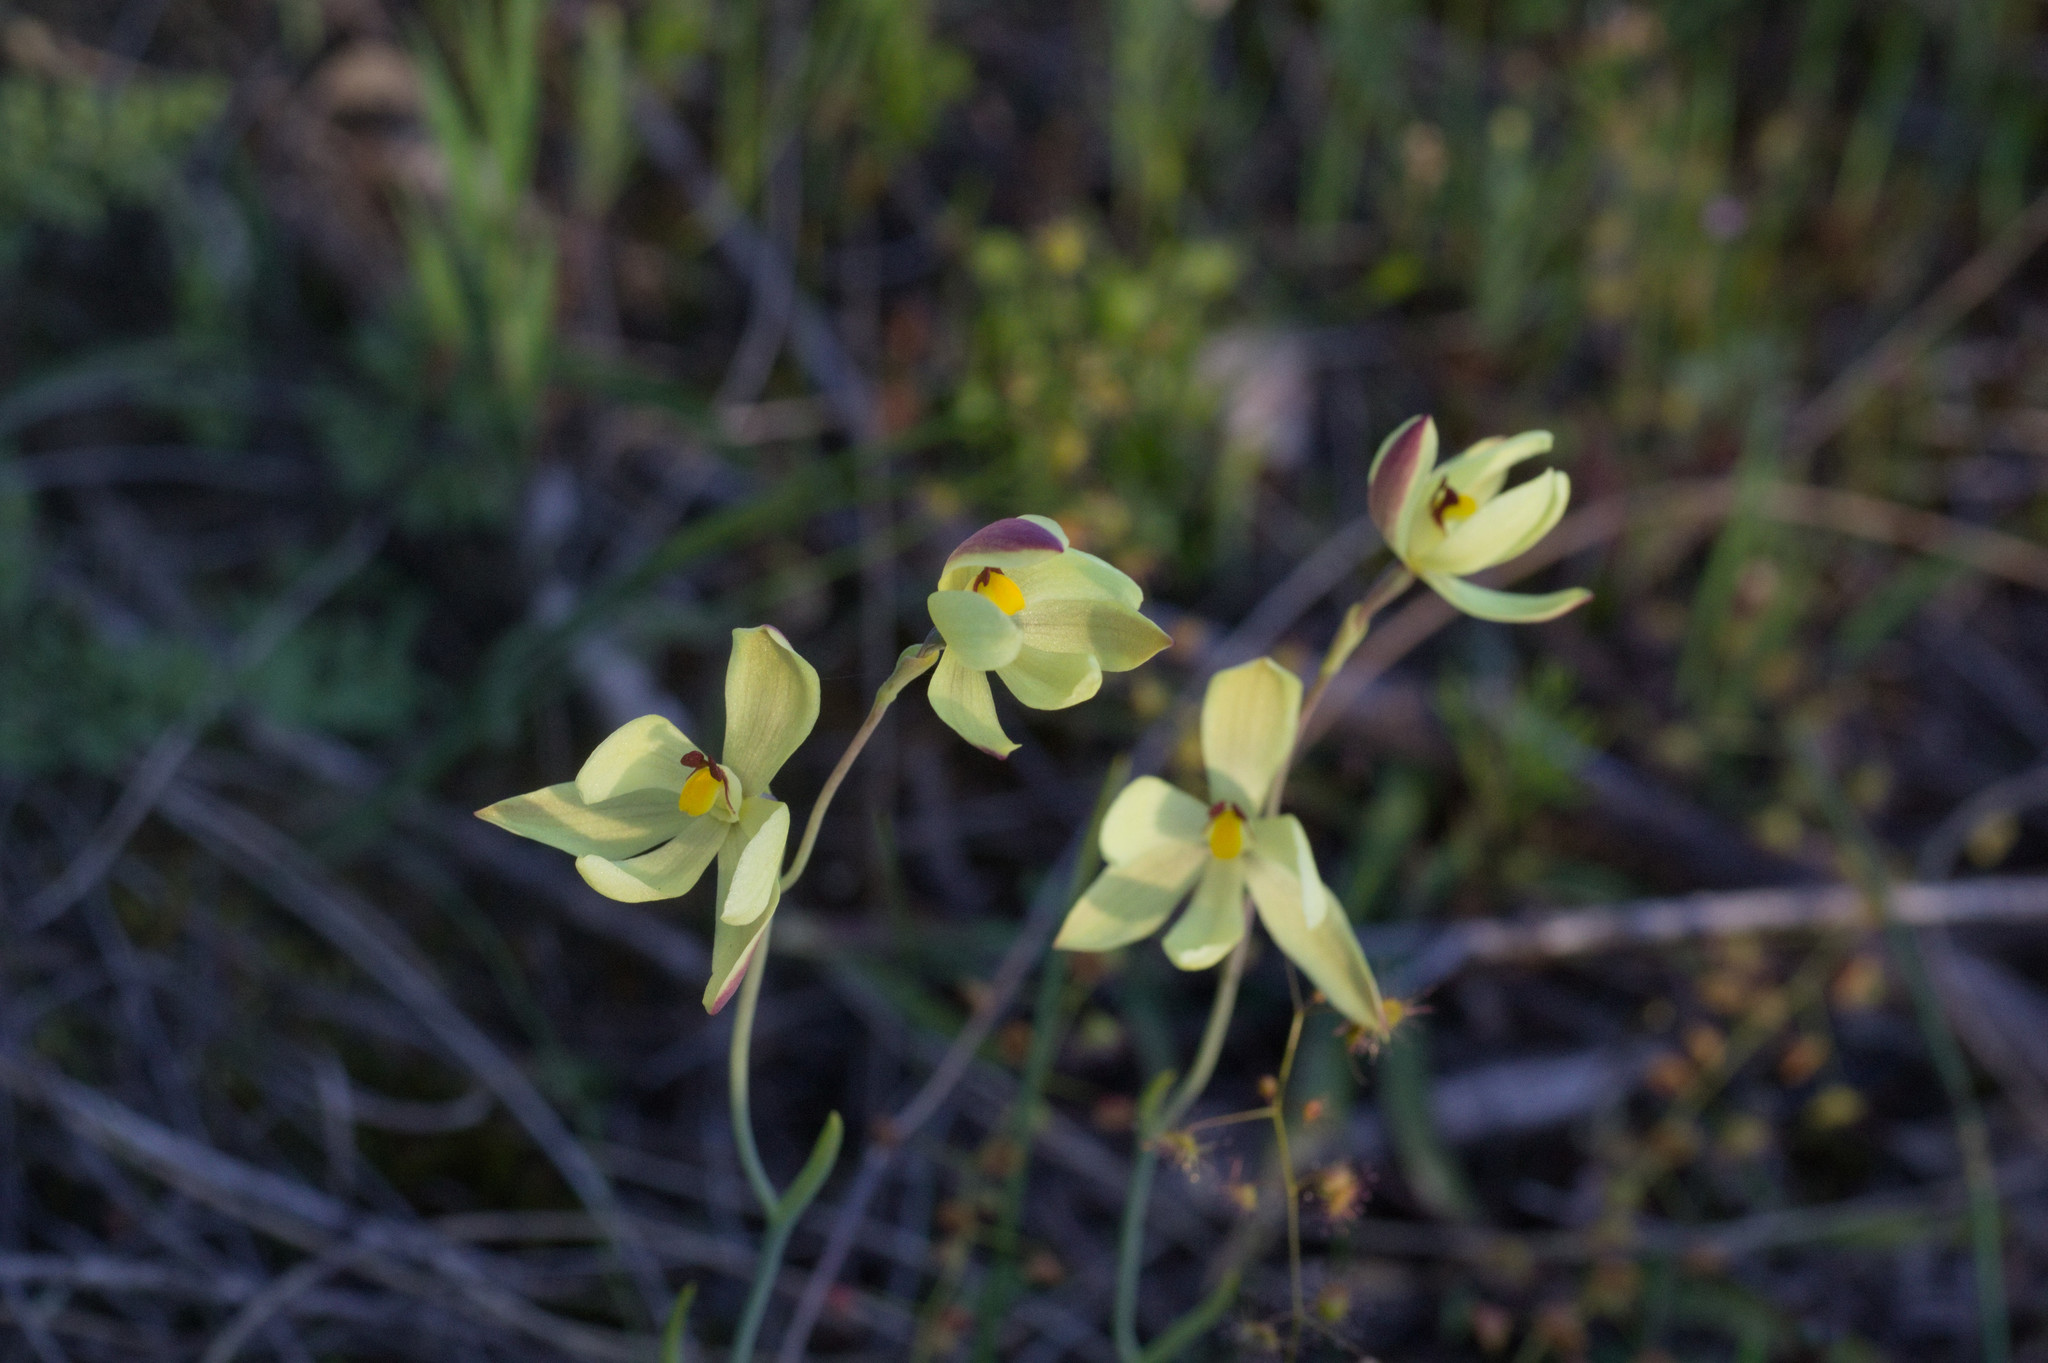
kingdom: Plantae
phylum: Tracheophyta
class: Liliopsida
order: Asparagales
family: Orchidaceae
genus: Thelymitra
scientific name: Thelymitra antennifera
